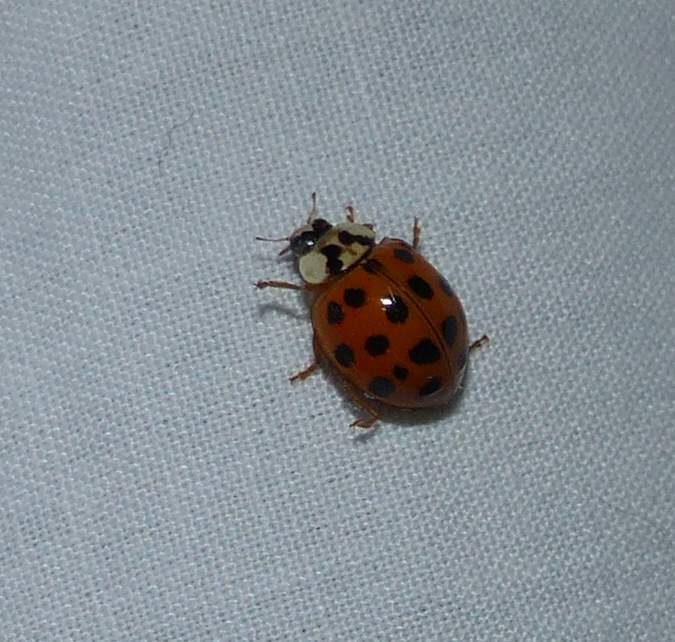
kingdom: Animalia
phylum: Arthropoda
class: Insecta
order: Coleoptera
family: Coccinellidae
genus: Harmonia
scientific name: Harmonia axyridis
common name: Harlequin ladybird
